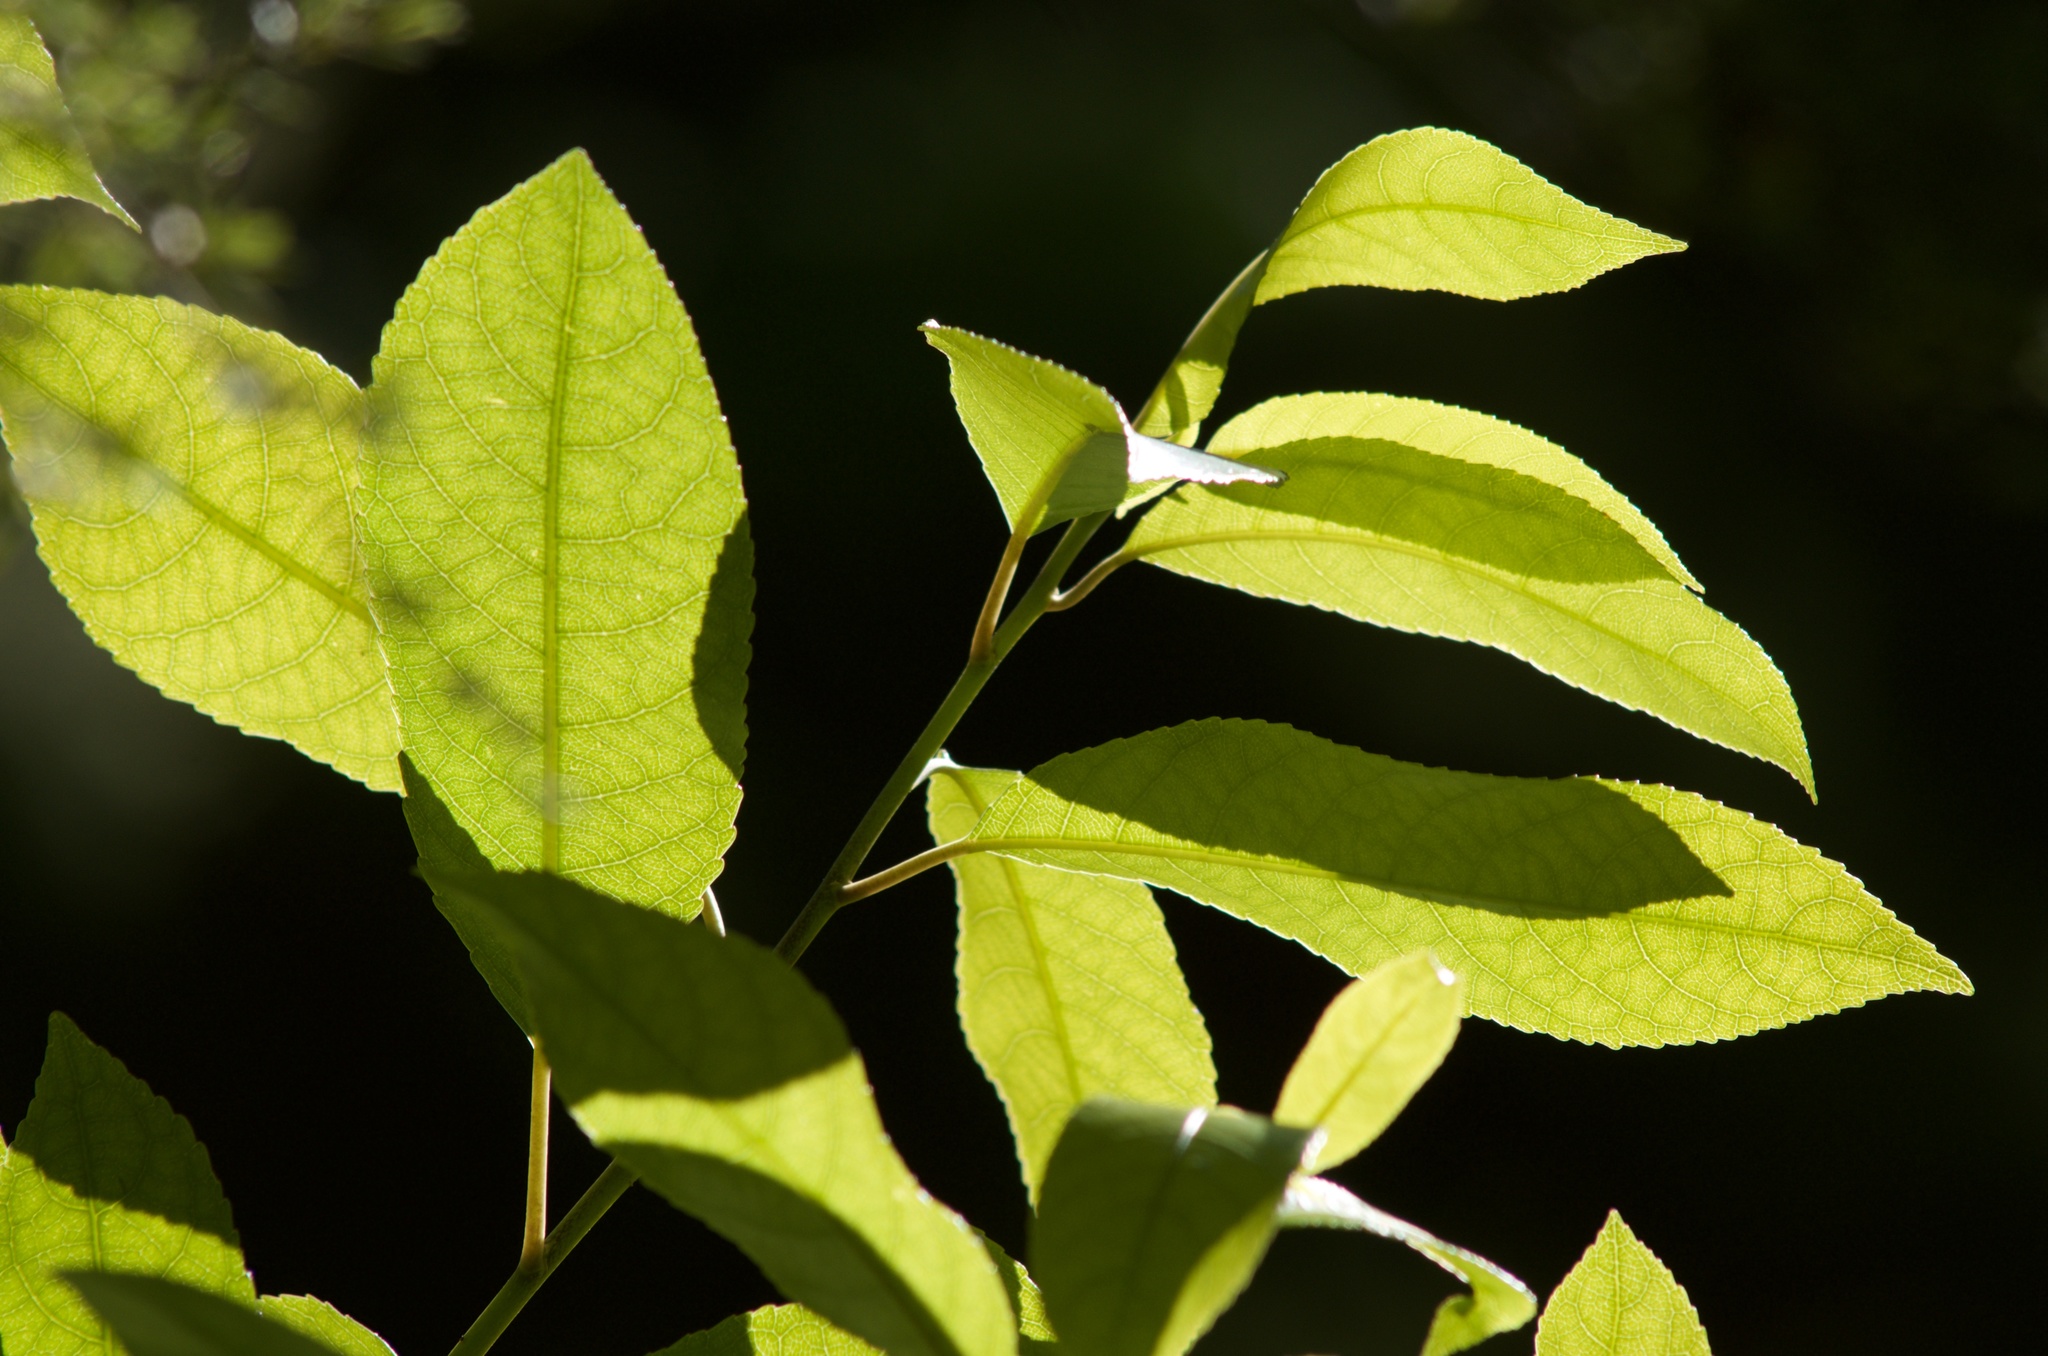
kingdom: Plantae
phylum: Tracheophyta
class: Magnoliopsida
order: Malpighiales
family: Violaceae
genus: Melicytus
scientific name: Melicytus ramiflorus
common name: Mahoe
